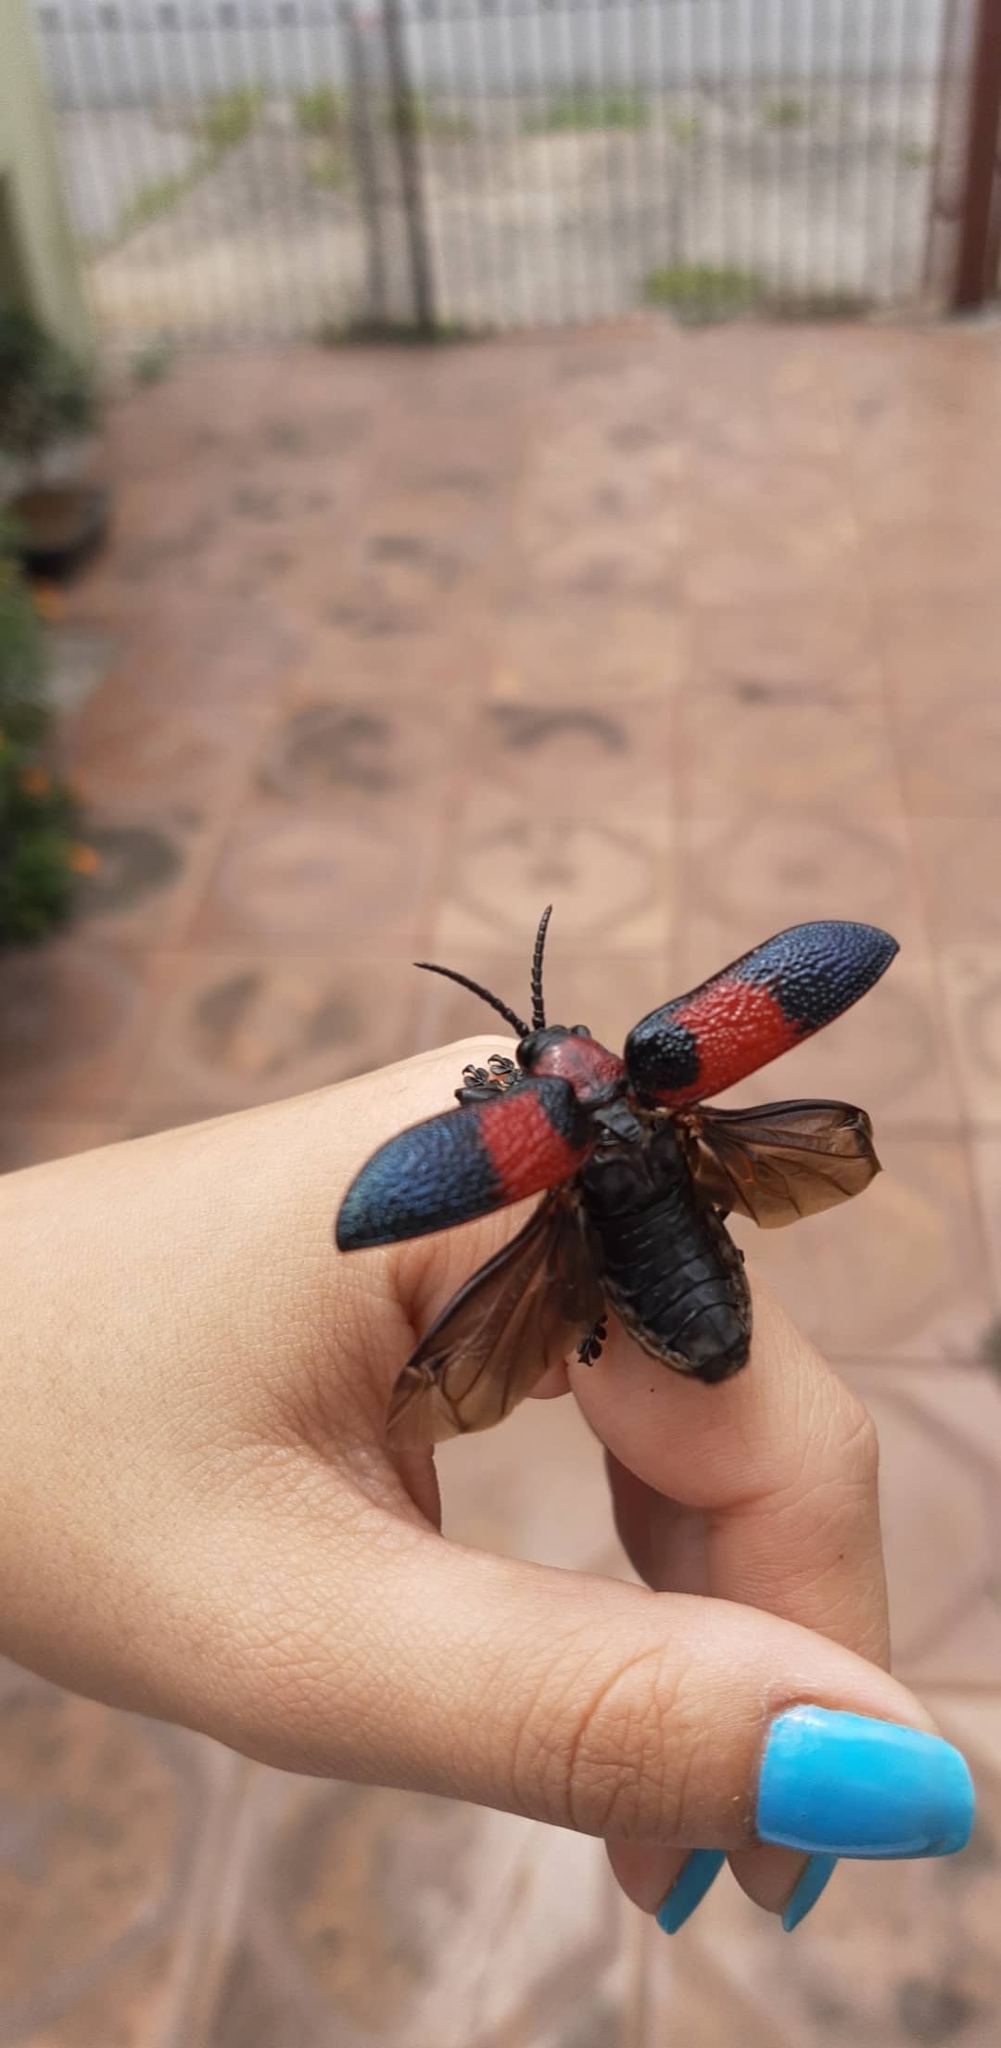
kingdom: Animalia
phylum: Arthropoda
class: Insecta
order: Coleoptera
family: Chrysomelidae
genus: Coraliomela
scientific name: Coraliomela aeneoplagiata
